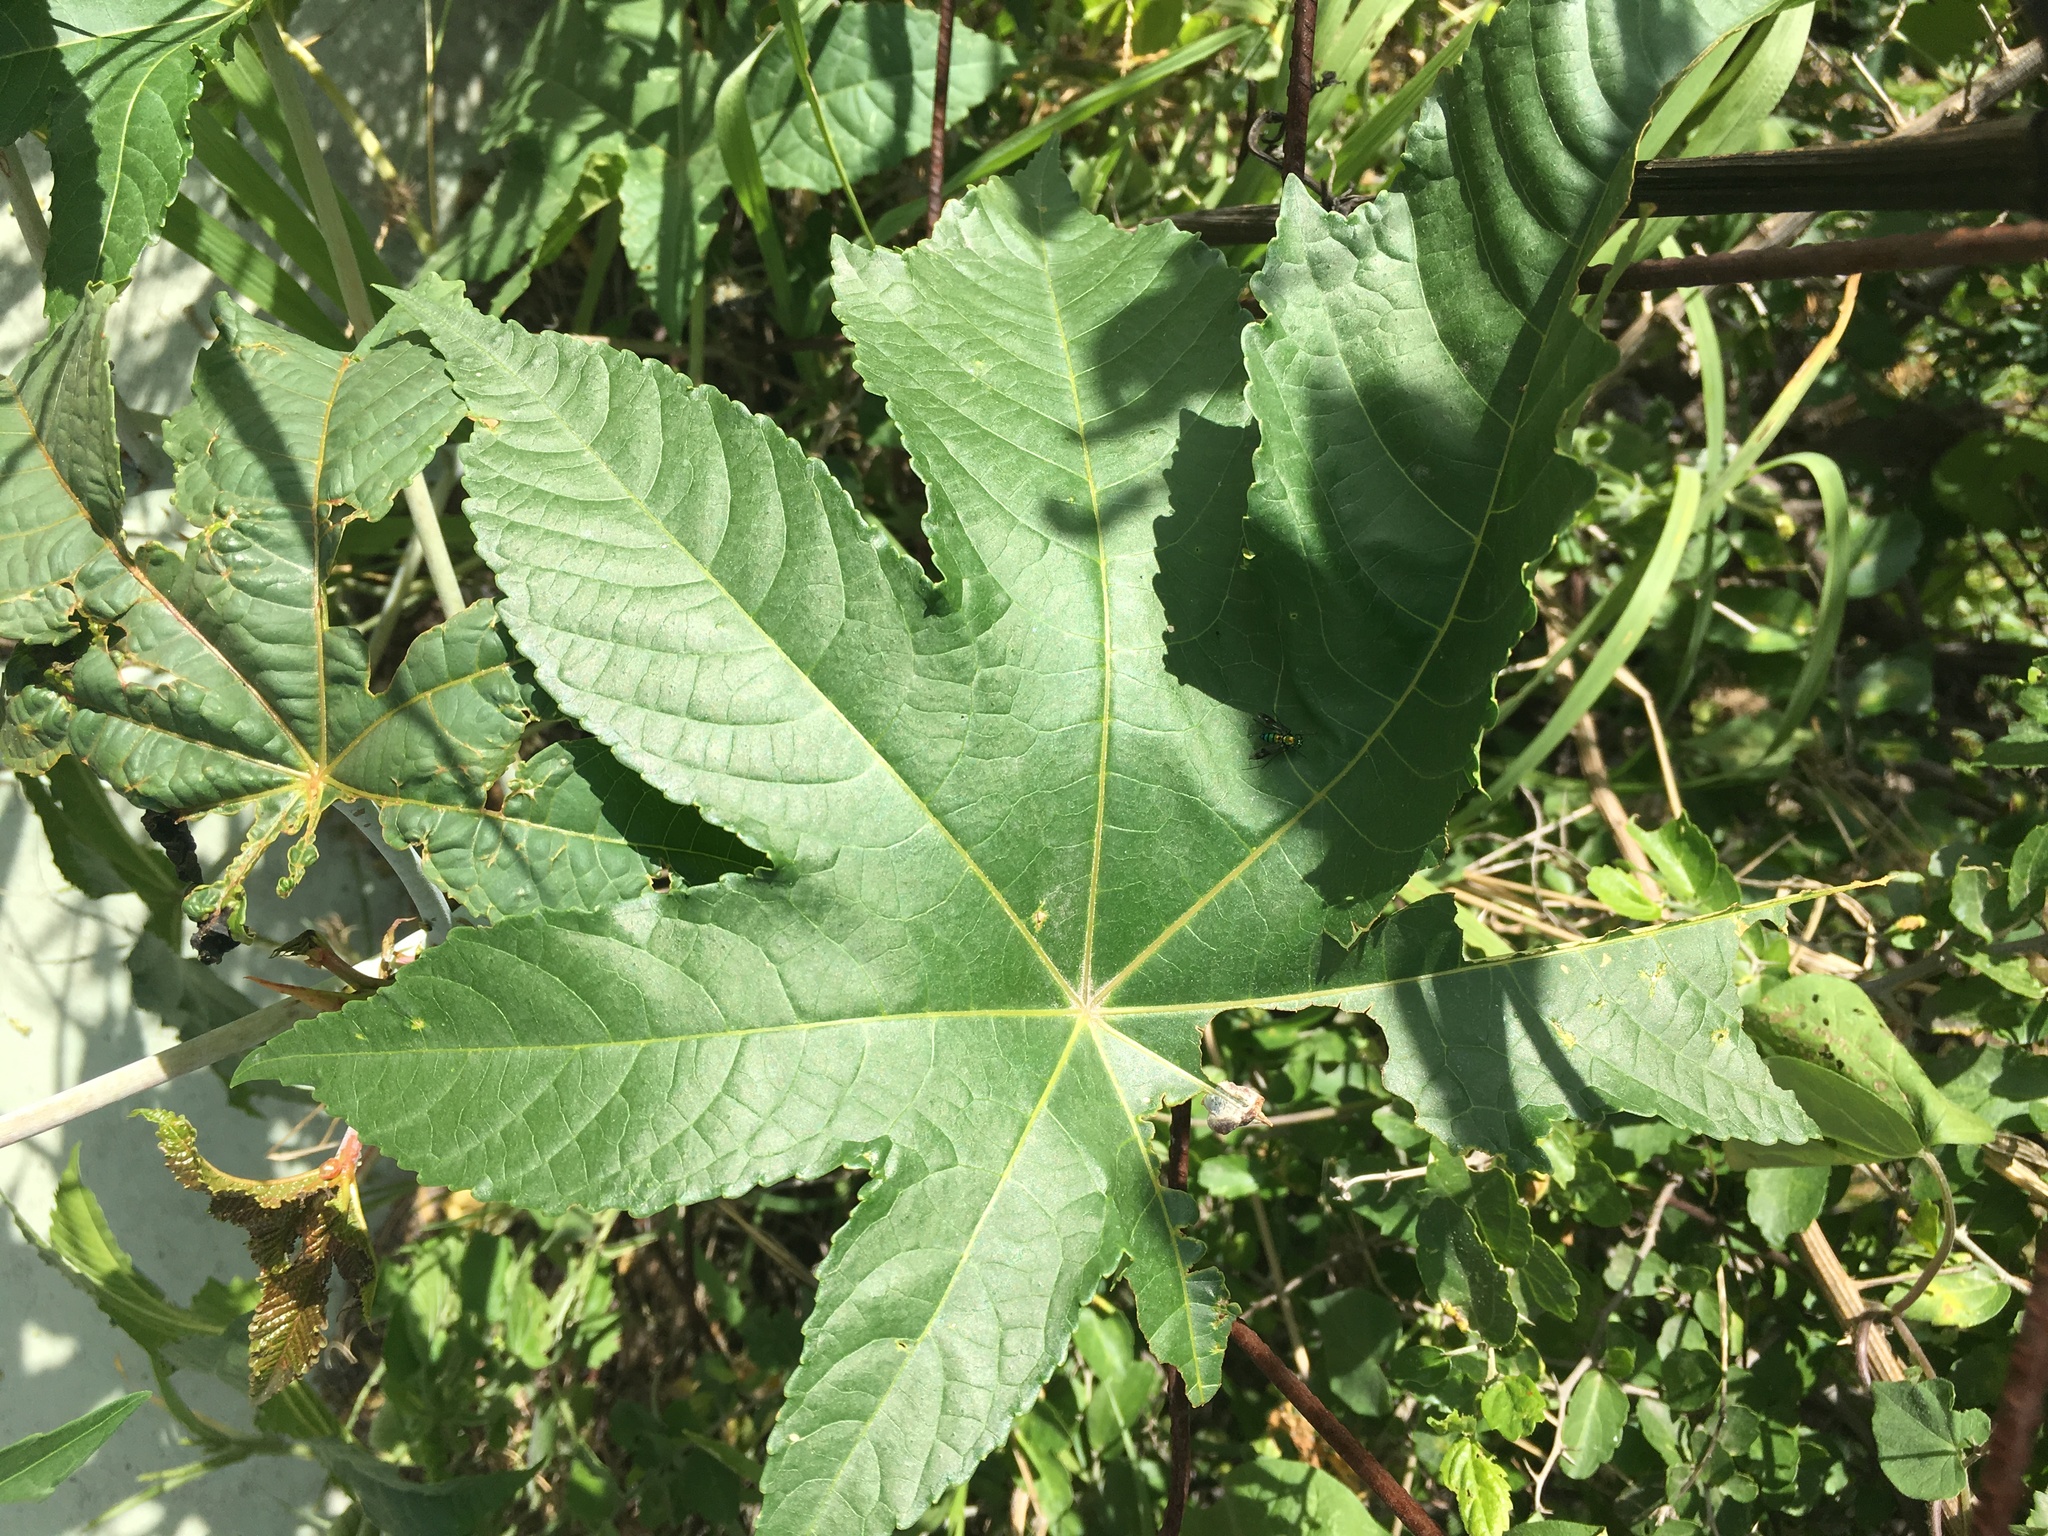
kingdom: Plantae
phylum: Tracheophyta
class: Magnoliopsida
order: Malpighiales
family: Euphorbiaceae
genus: Ricinus
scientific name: Ricinus communis
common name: Castor-oil-plant
